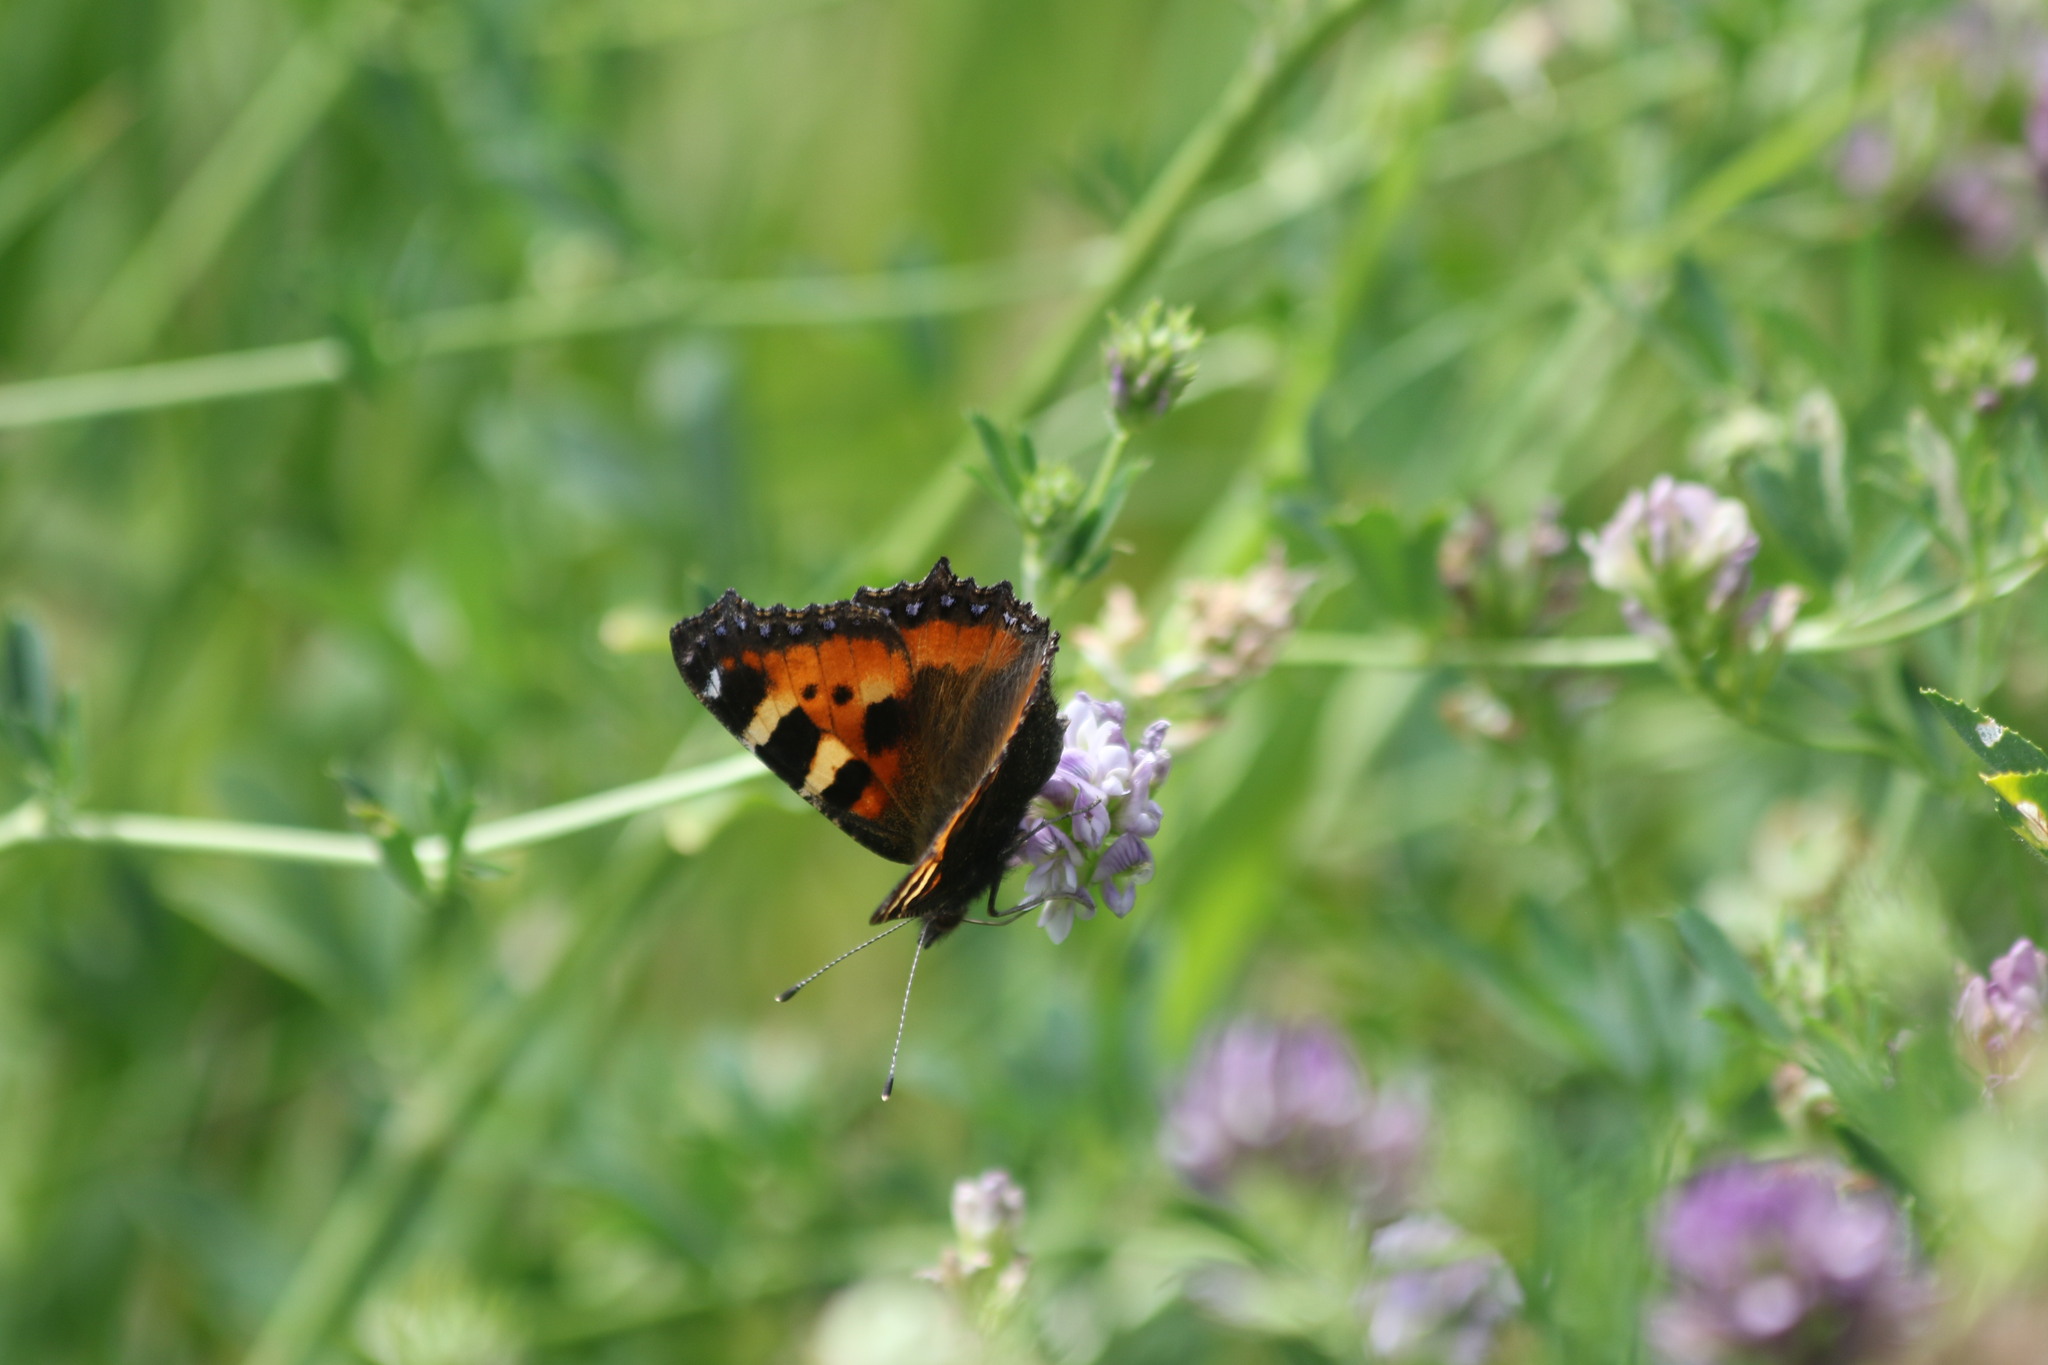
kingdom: Animalia
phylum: Arthropoda
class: Insecta
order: Lepidoptera
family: Nymphalidae
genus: Aglais
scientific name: Aglais urticae
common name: Small tortoiseshell
